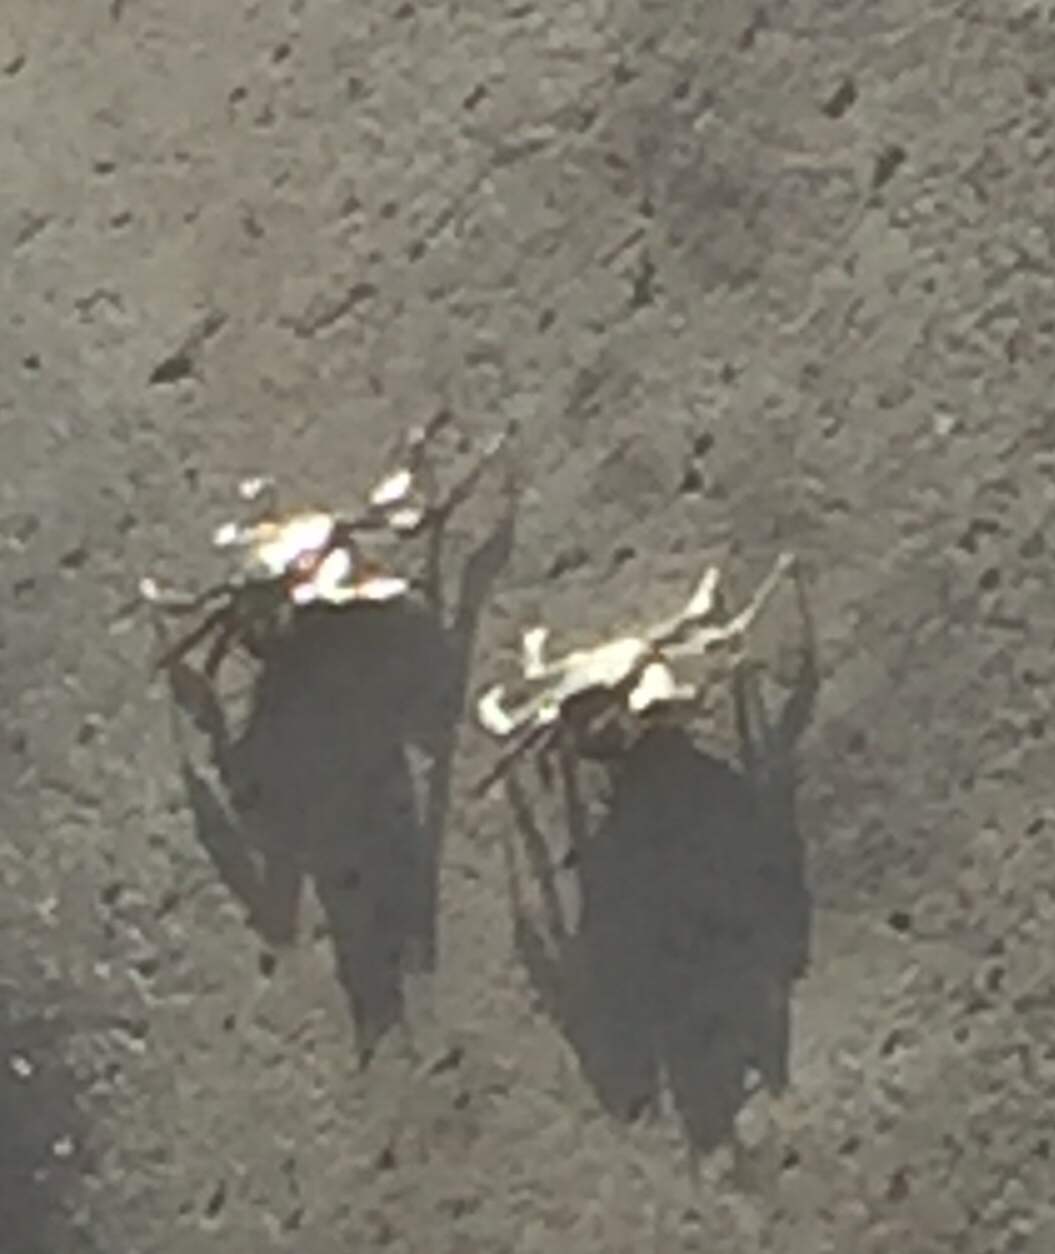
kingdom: Animalia
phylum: Arthropoda
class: Malacostraca
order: Decapoda
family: Grapsidae
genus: Grapsus
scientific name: Grapsus adscensionis
